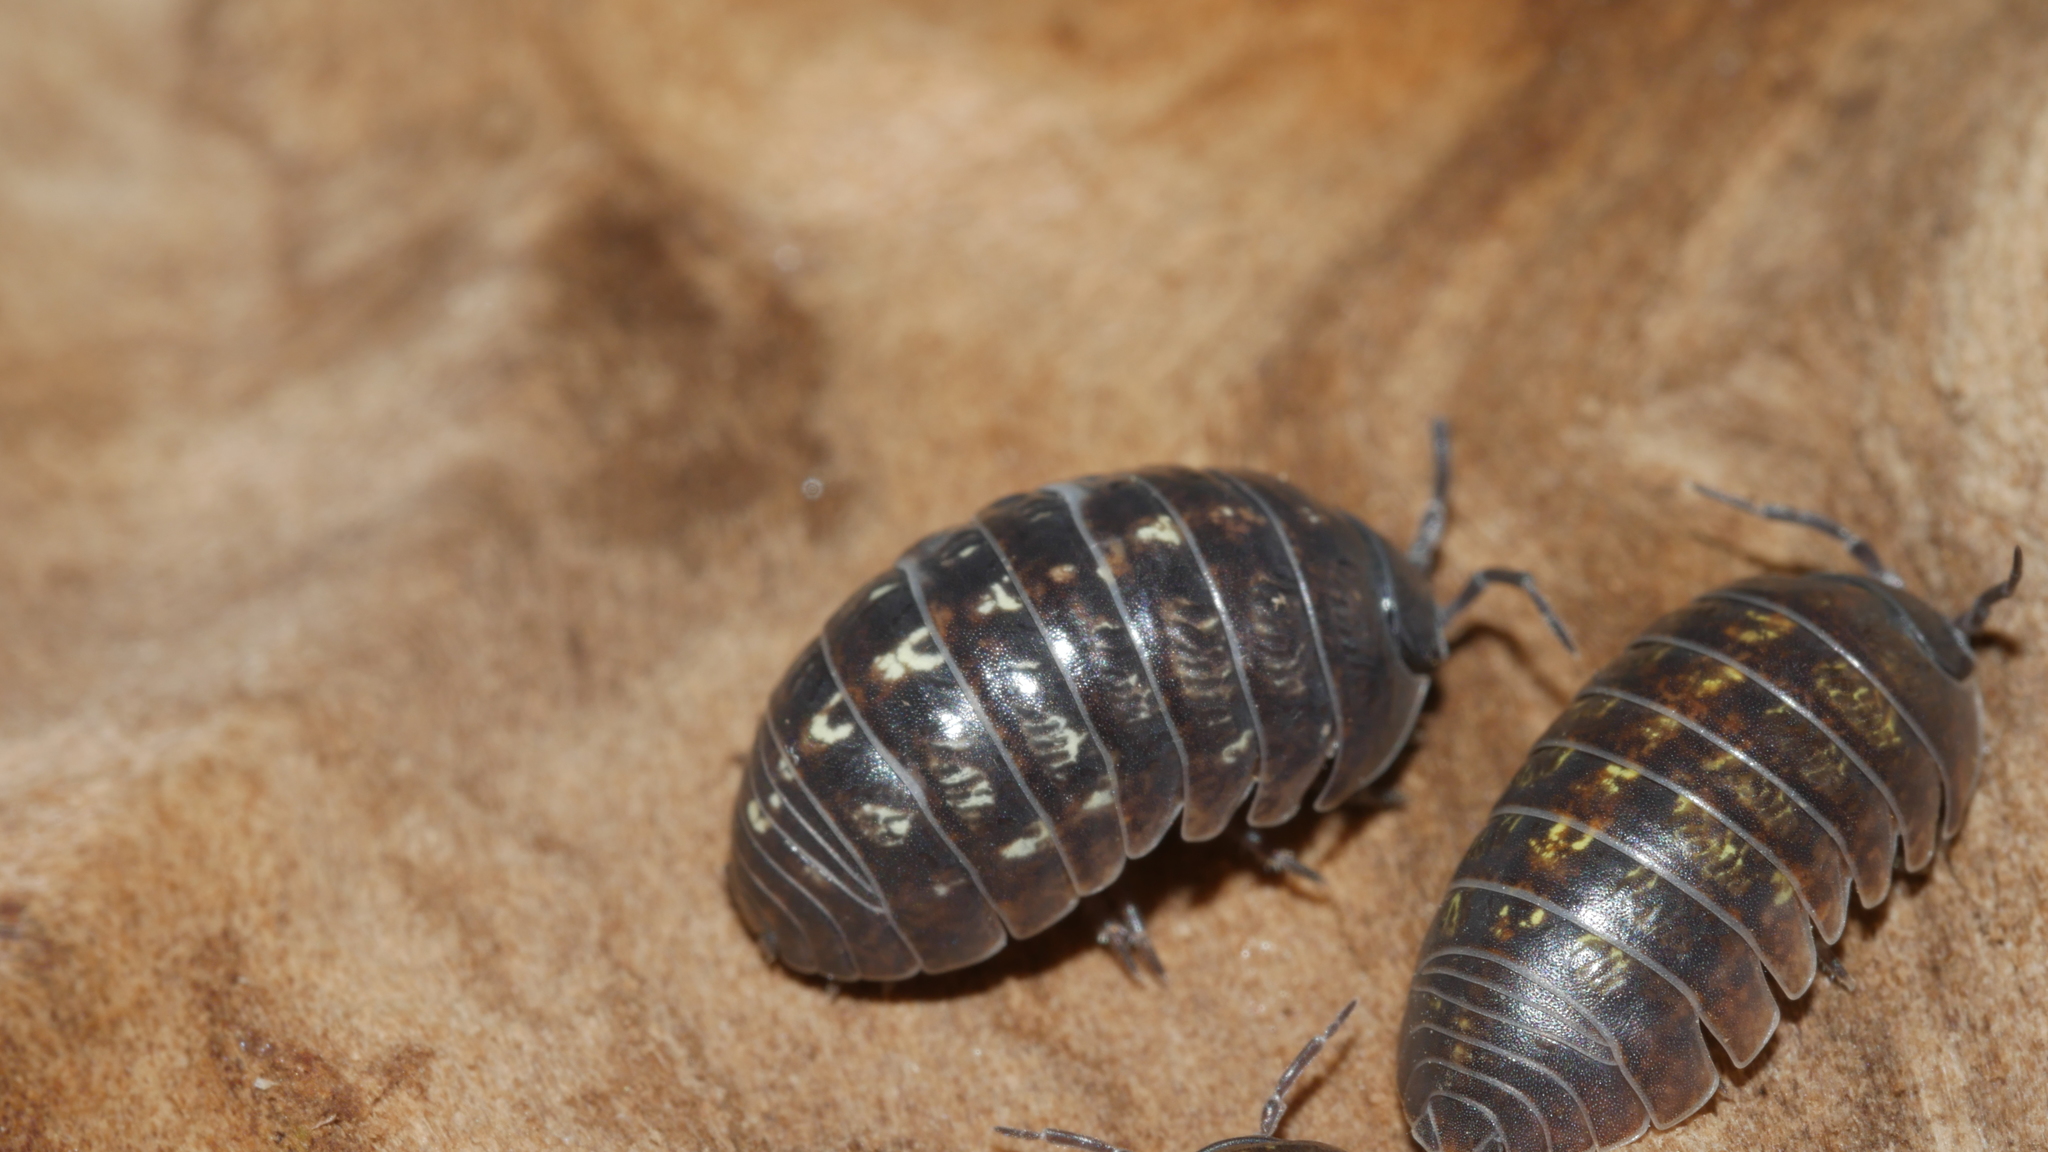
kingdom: Animalia
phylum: Arthropoda
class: Malacostraca
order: Isopoda
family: Armadillidiidae
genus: Armadillidium
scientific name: Armadillidium vulgare
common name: Common pill woodlouse
